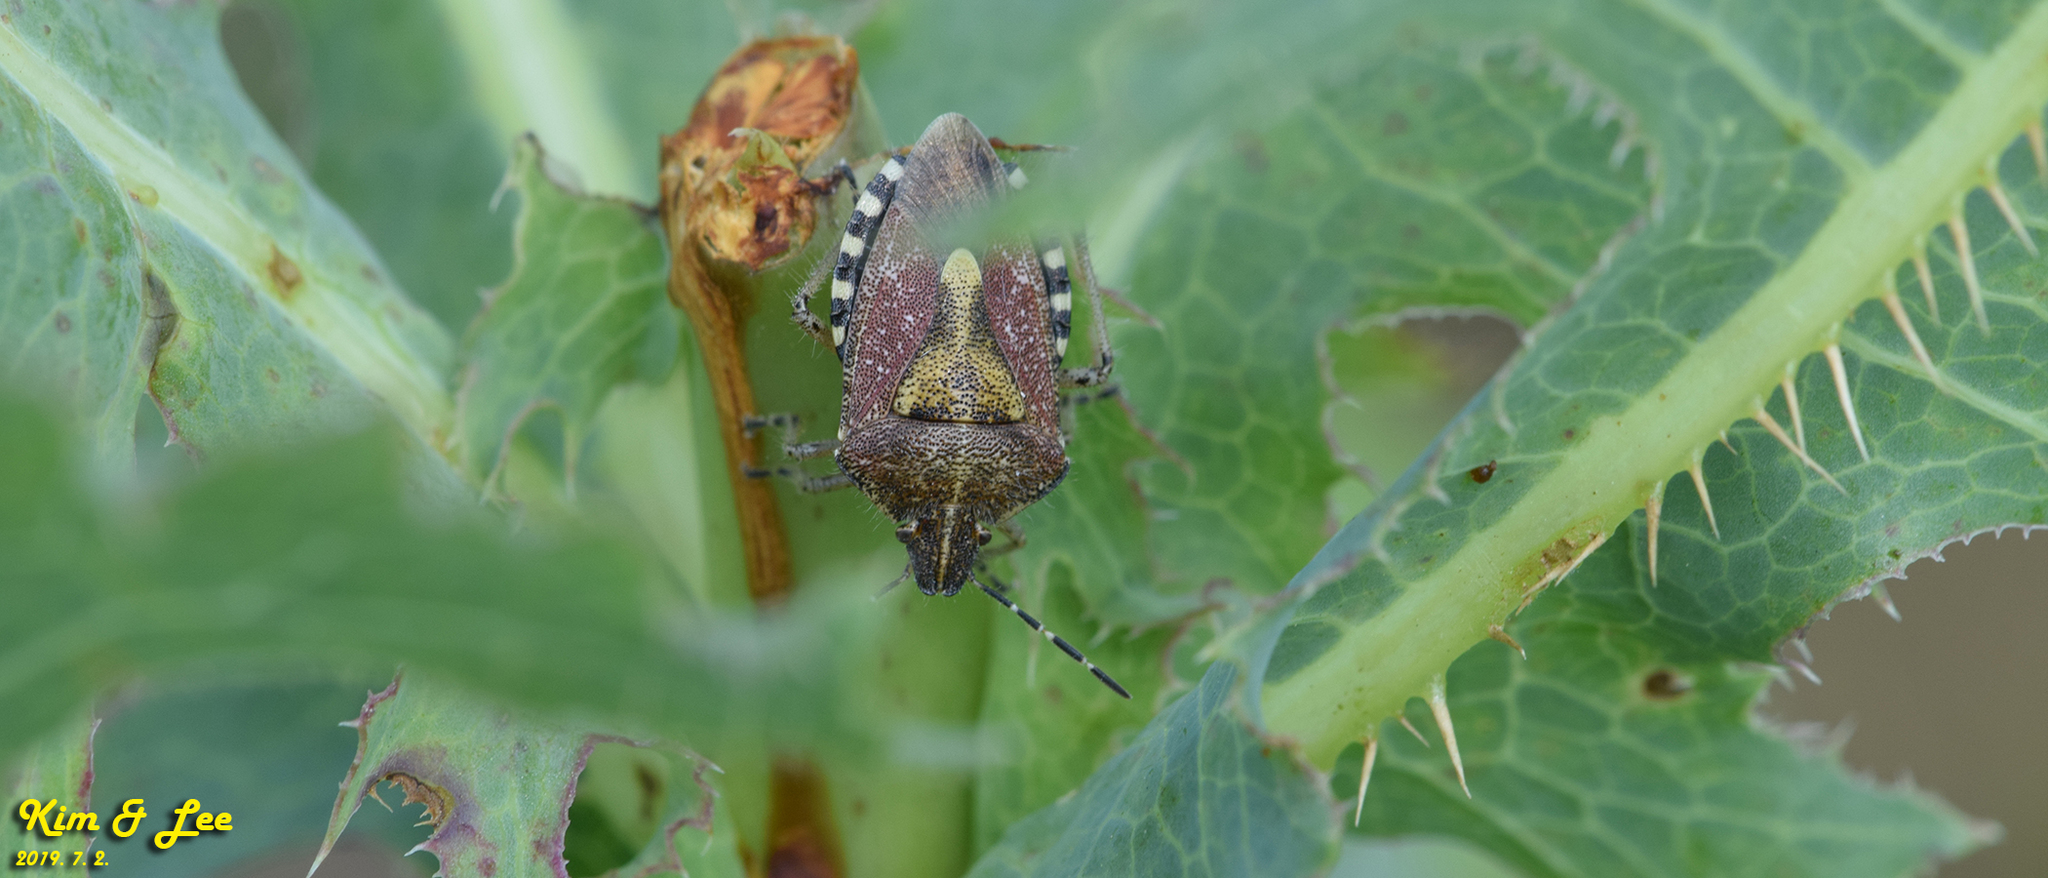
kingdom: Animalia
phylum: Arthropoda
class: Insecta
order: Hemiptera
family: Pentatomidae
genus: Dolycoris
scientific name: Dolycoris baccarum
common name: Sloe bug
